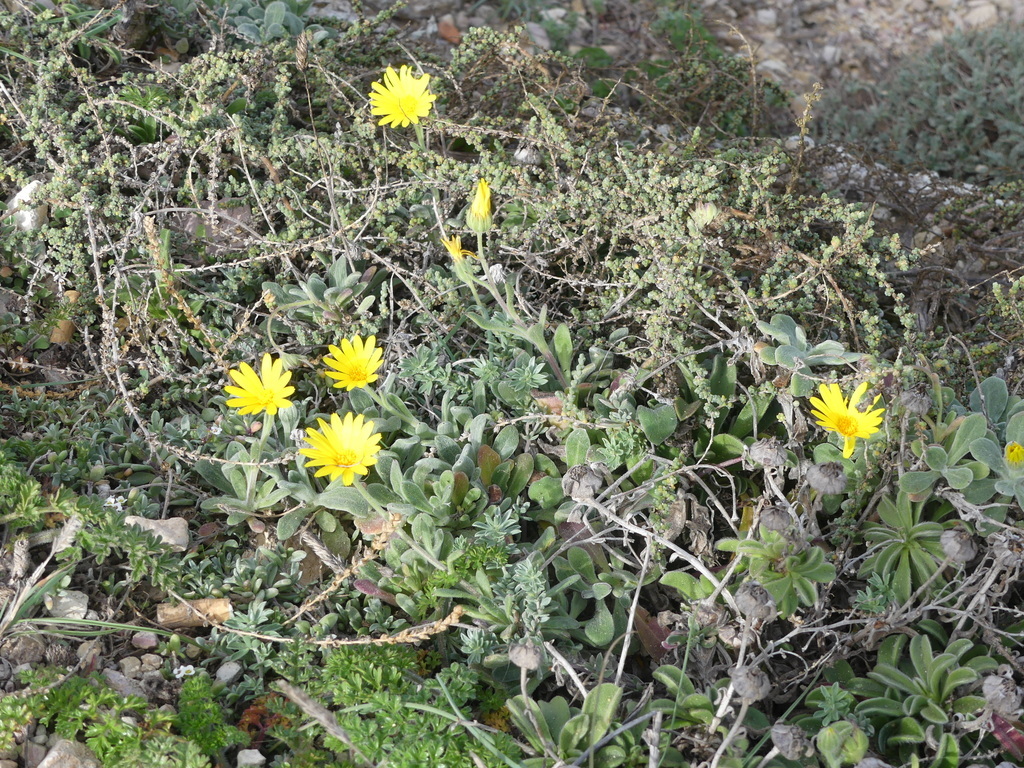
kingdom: Plantae
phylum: Tracheophyta
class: Magnoliopsida
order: Asterales
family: Asteraceae
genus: Calendula
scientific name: Calendula suffruticosa
